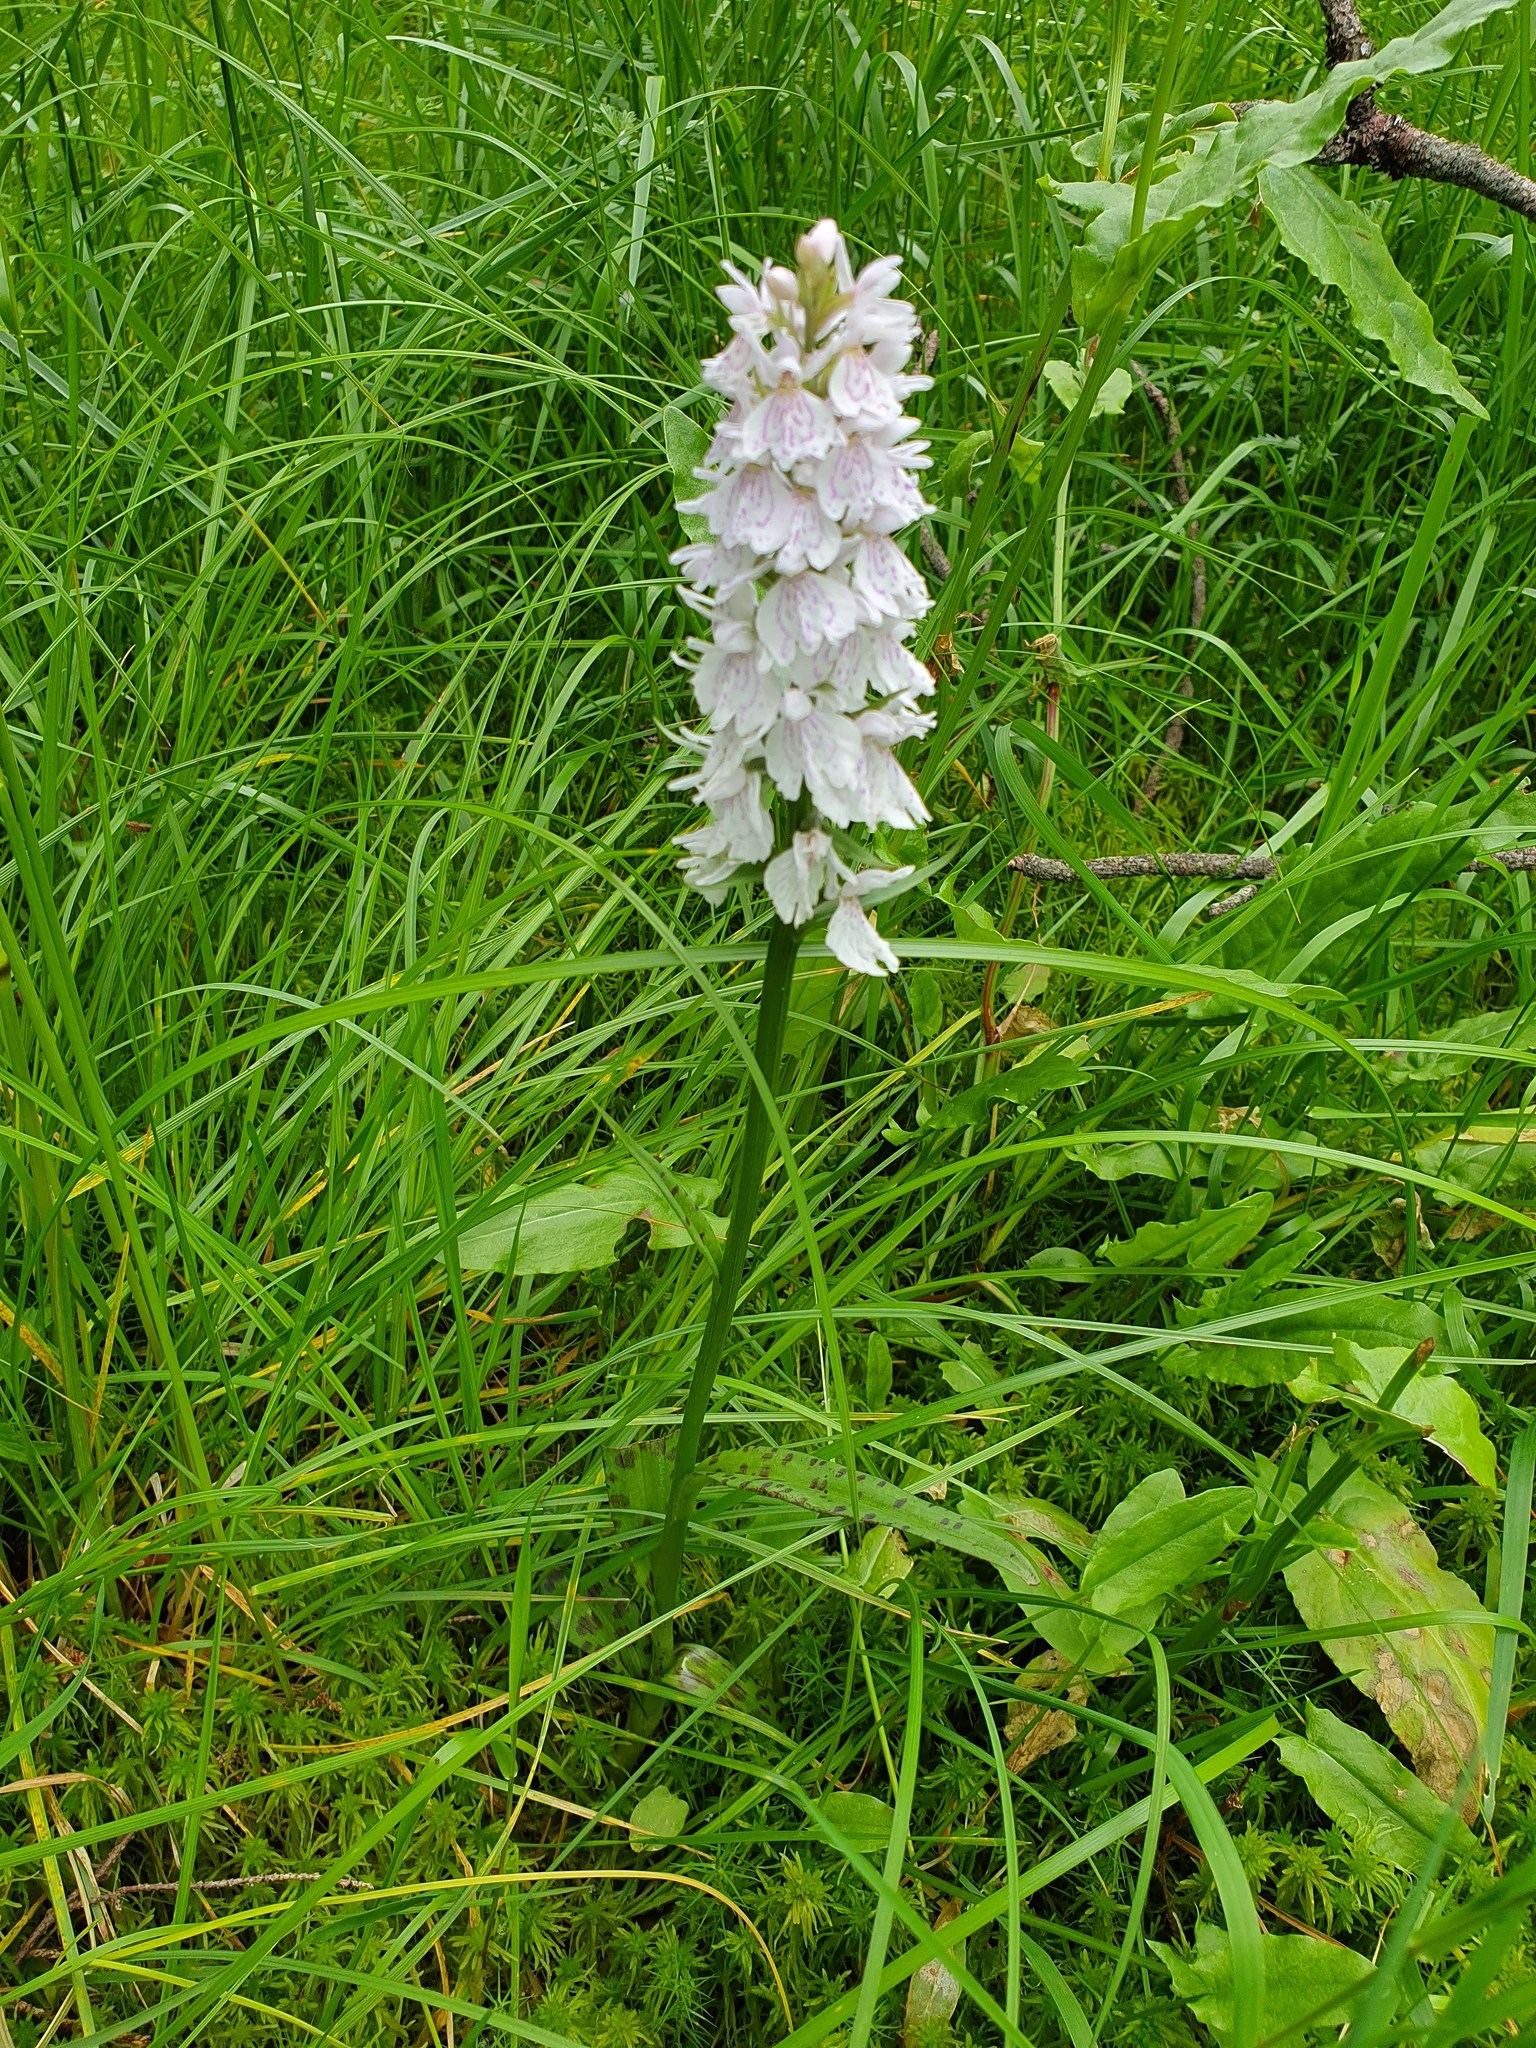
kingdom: Plantae
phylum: Tracheophyta
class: Liliopsida
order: Asparagales
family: Orchidaceae
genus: Dactylorhiza
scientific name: Dactylorhiza maculata
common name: Heath spotted-orchid
